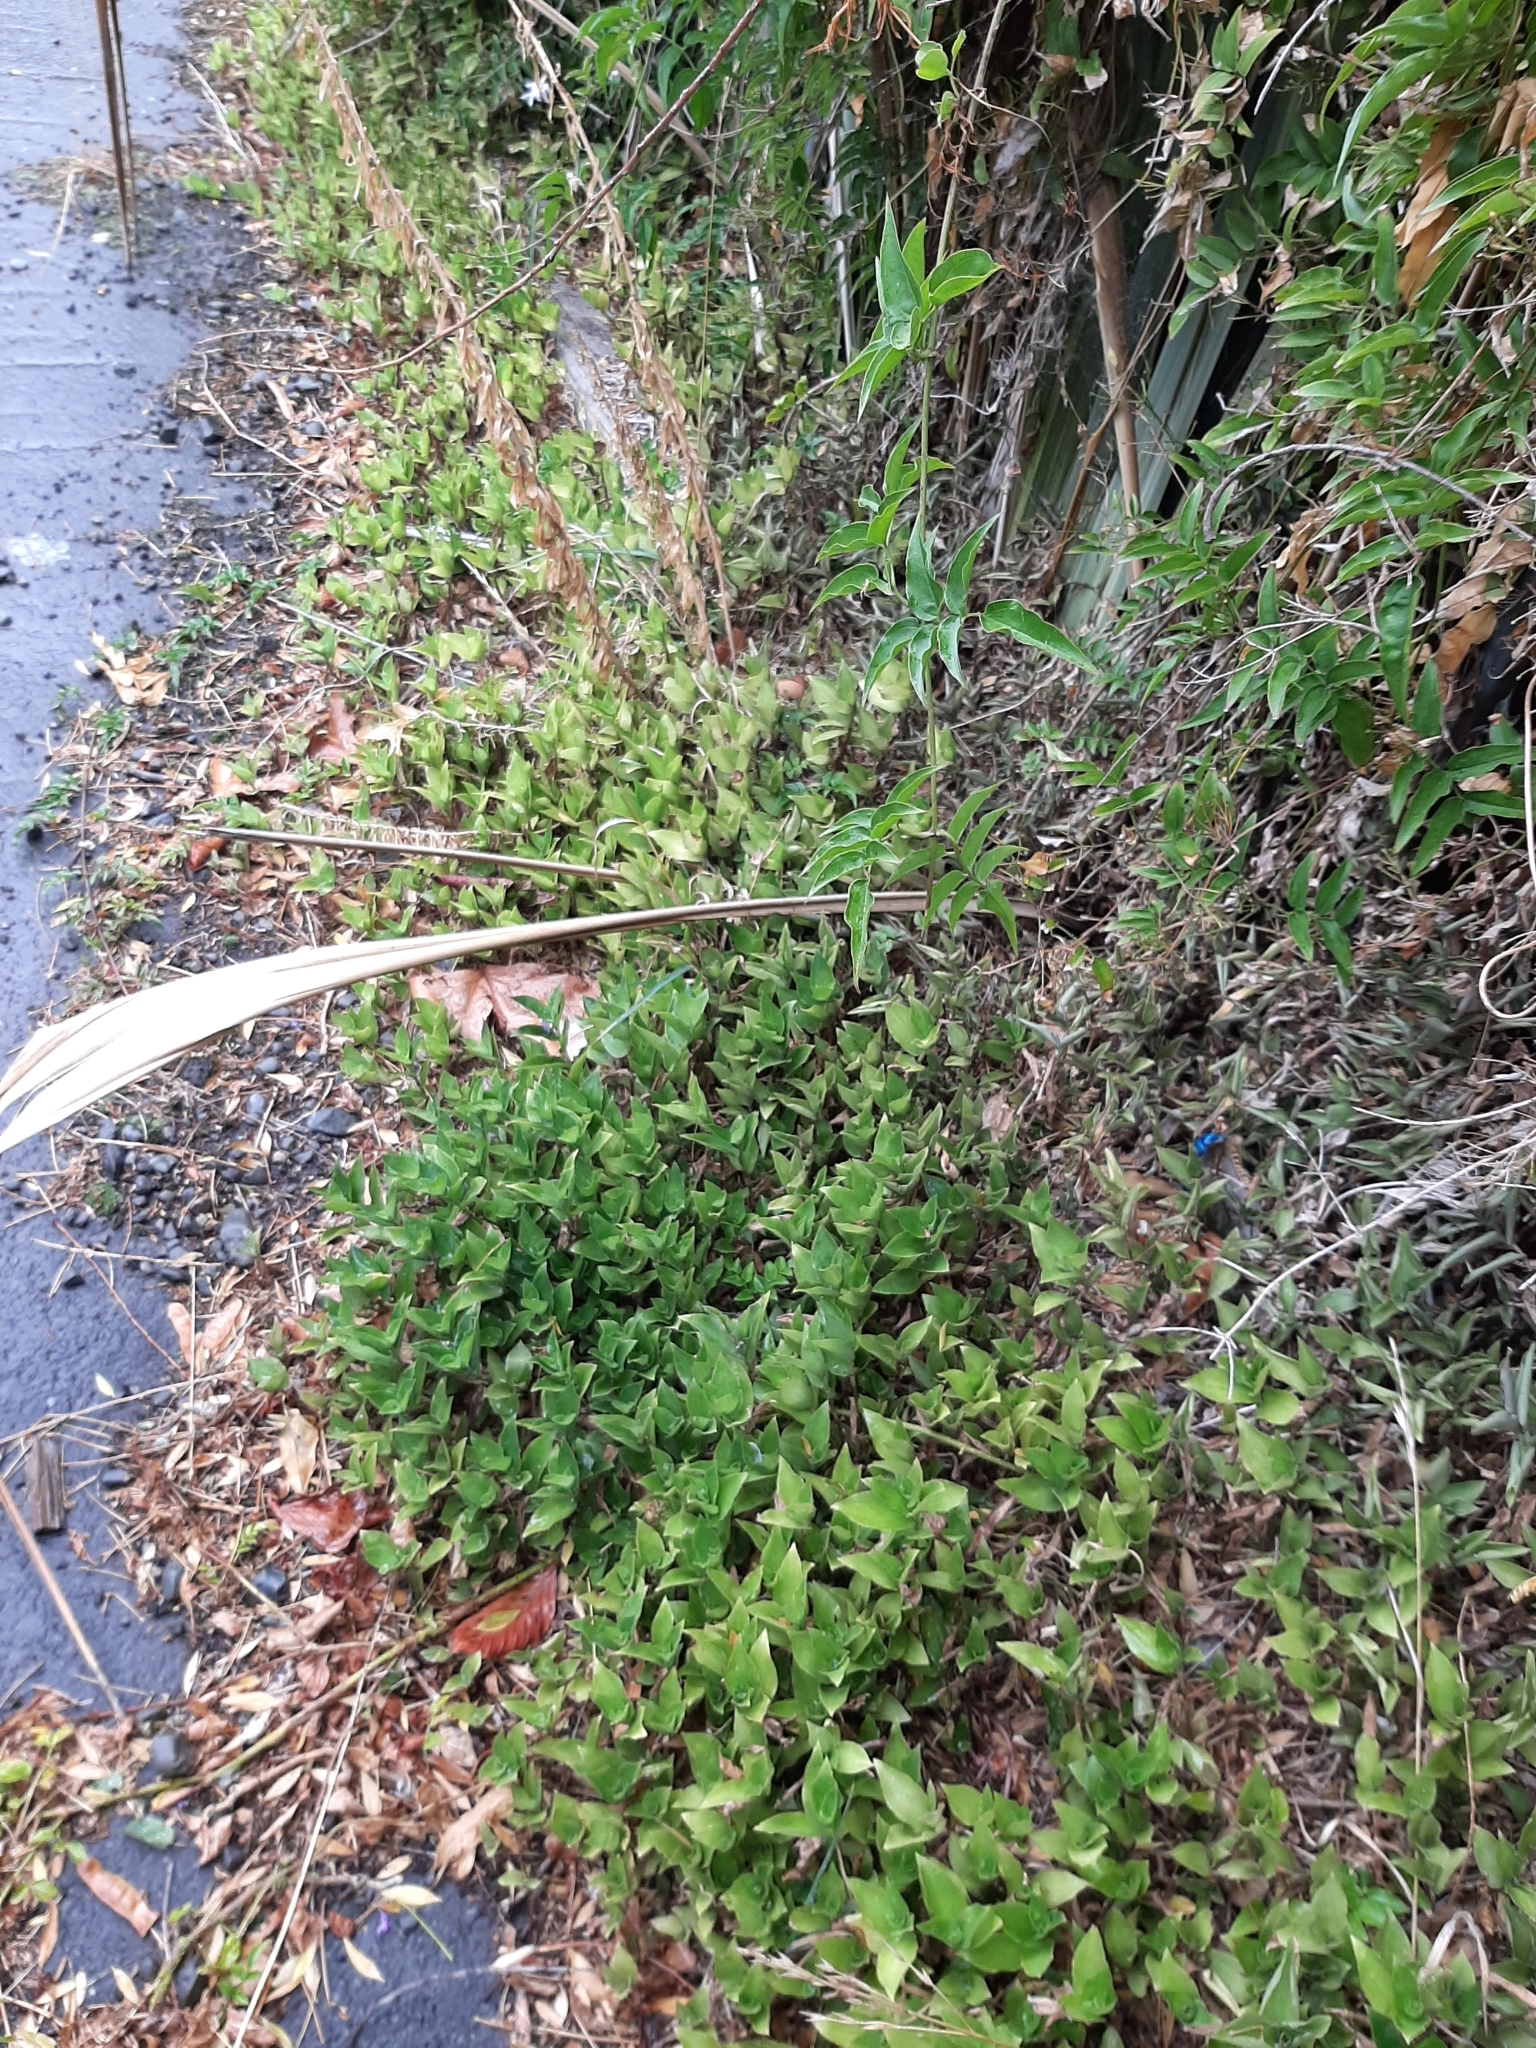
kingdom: Plantae
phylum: Tracheophyta
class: Liliopsida
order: Commelinales
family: Commelinaceae
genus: Tradescantia
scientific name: Tradescantia fluminensis
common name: Wandering-jew
